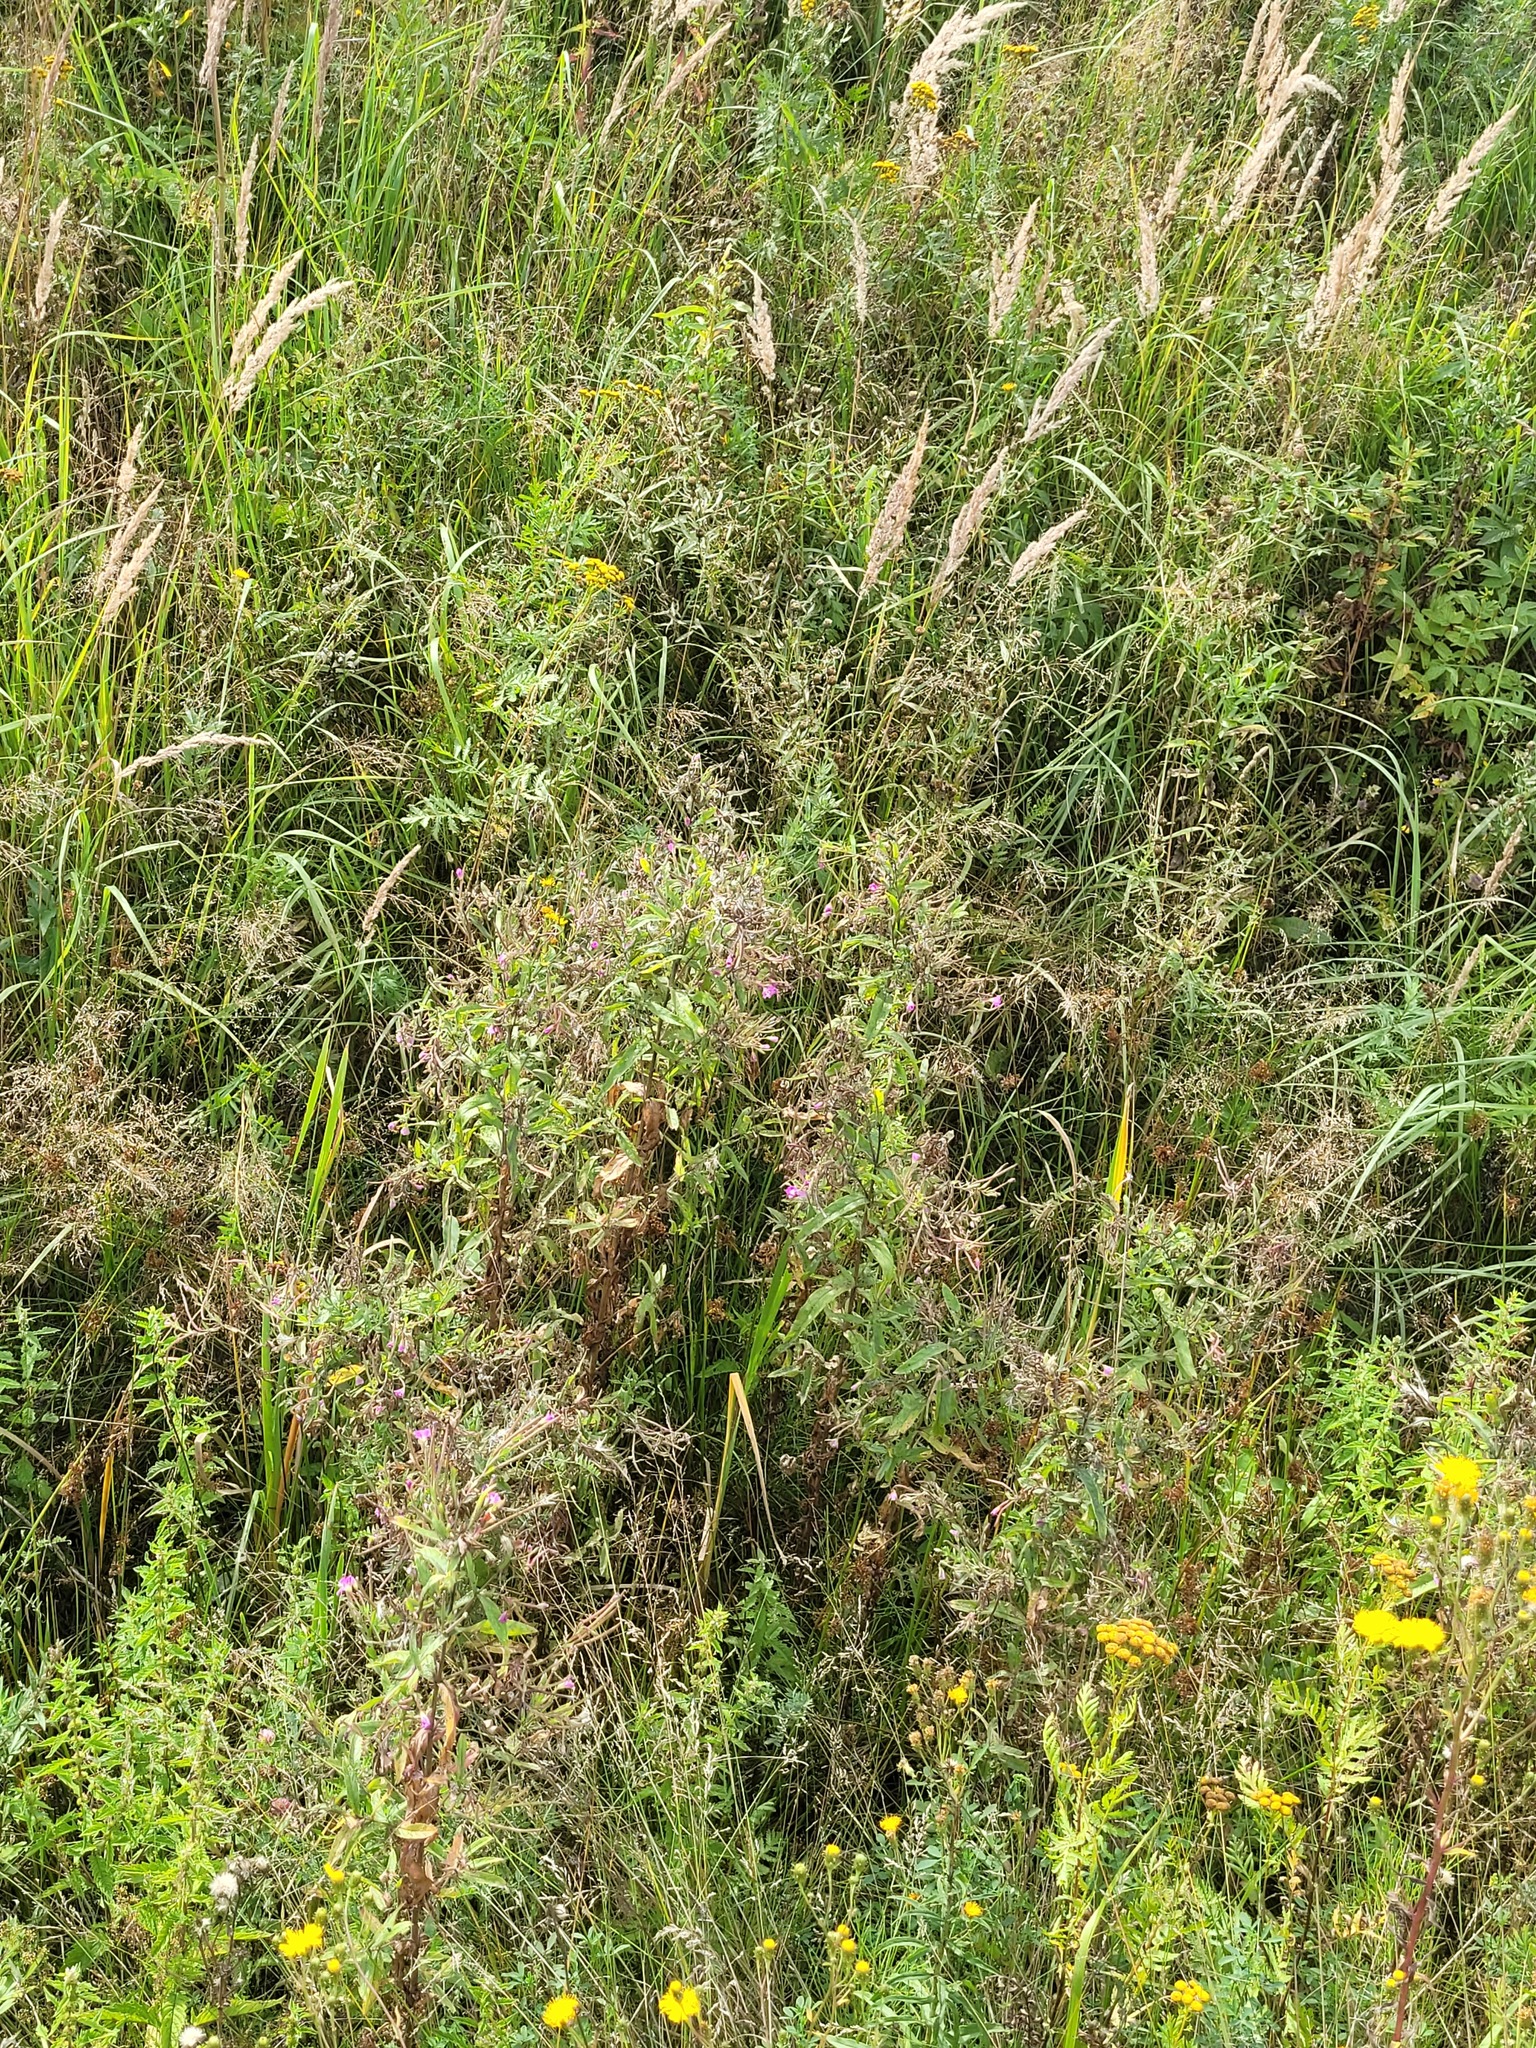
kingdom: Plantae
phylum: Tracheophyta
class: Magnoliopsida
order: Myrtales
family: Onagraceae
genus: Epilobium
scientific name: Epilobium hirsutum
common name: Great willowherb
